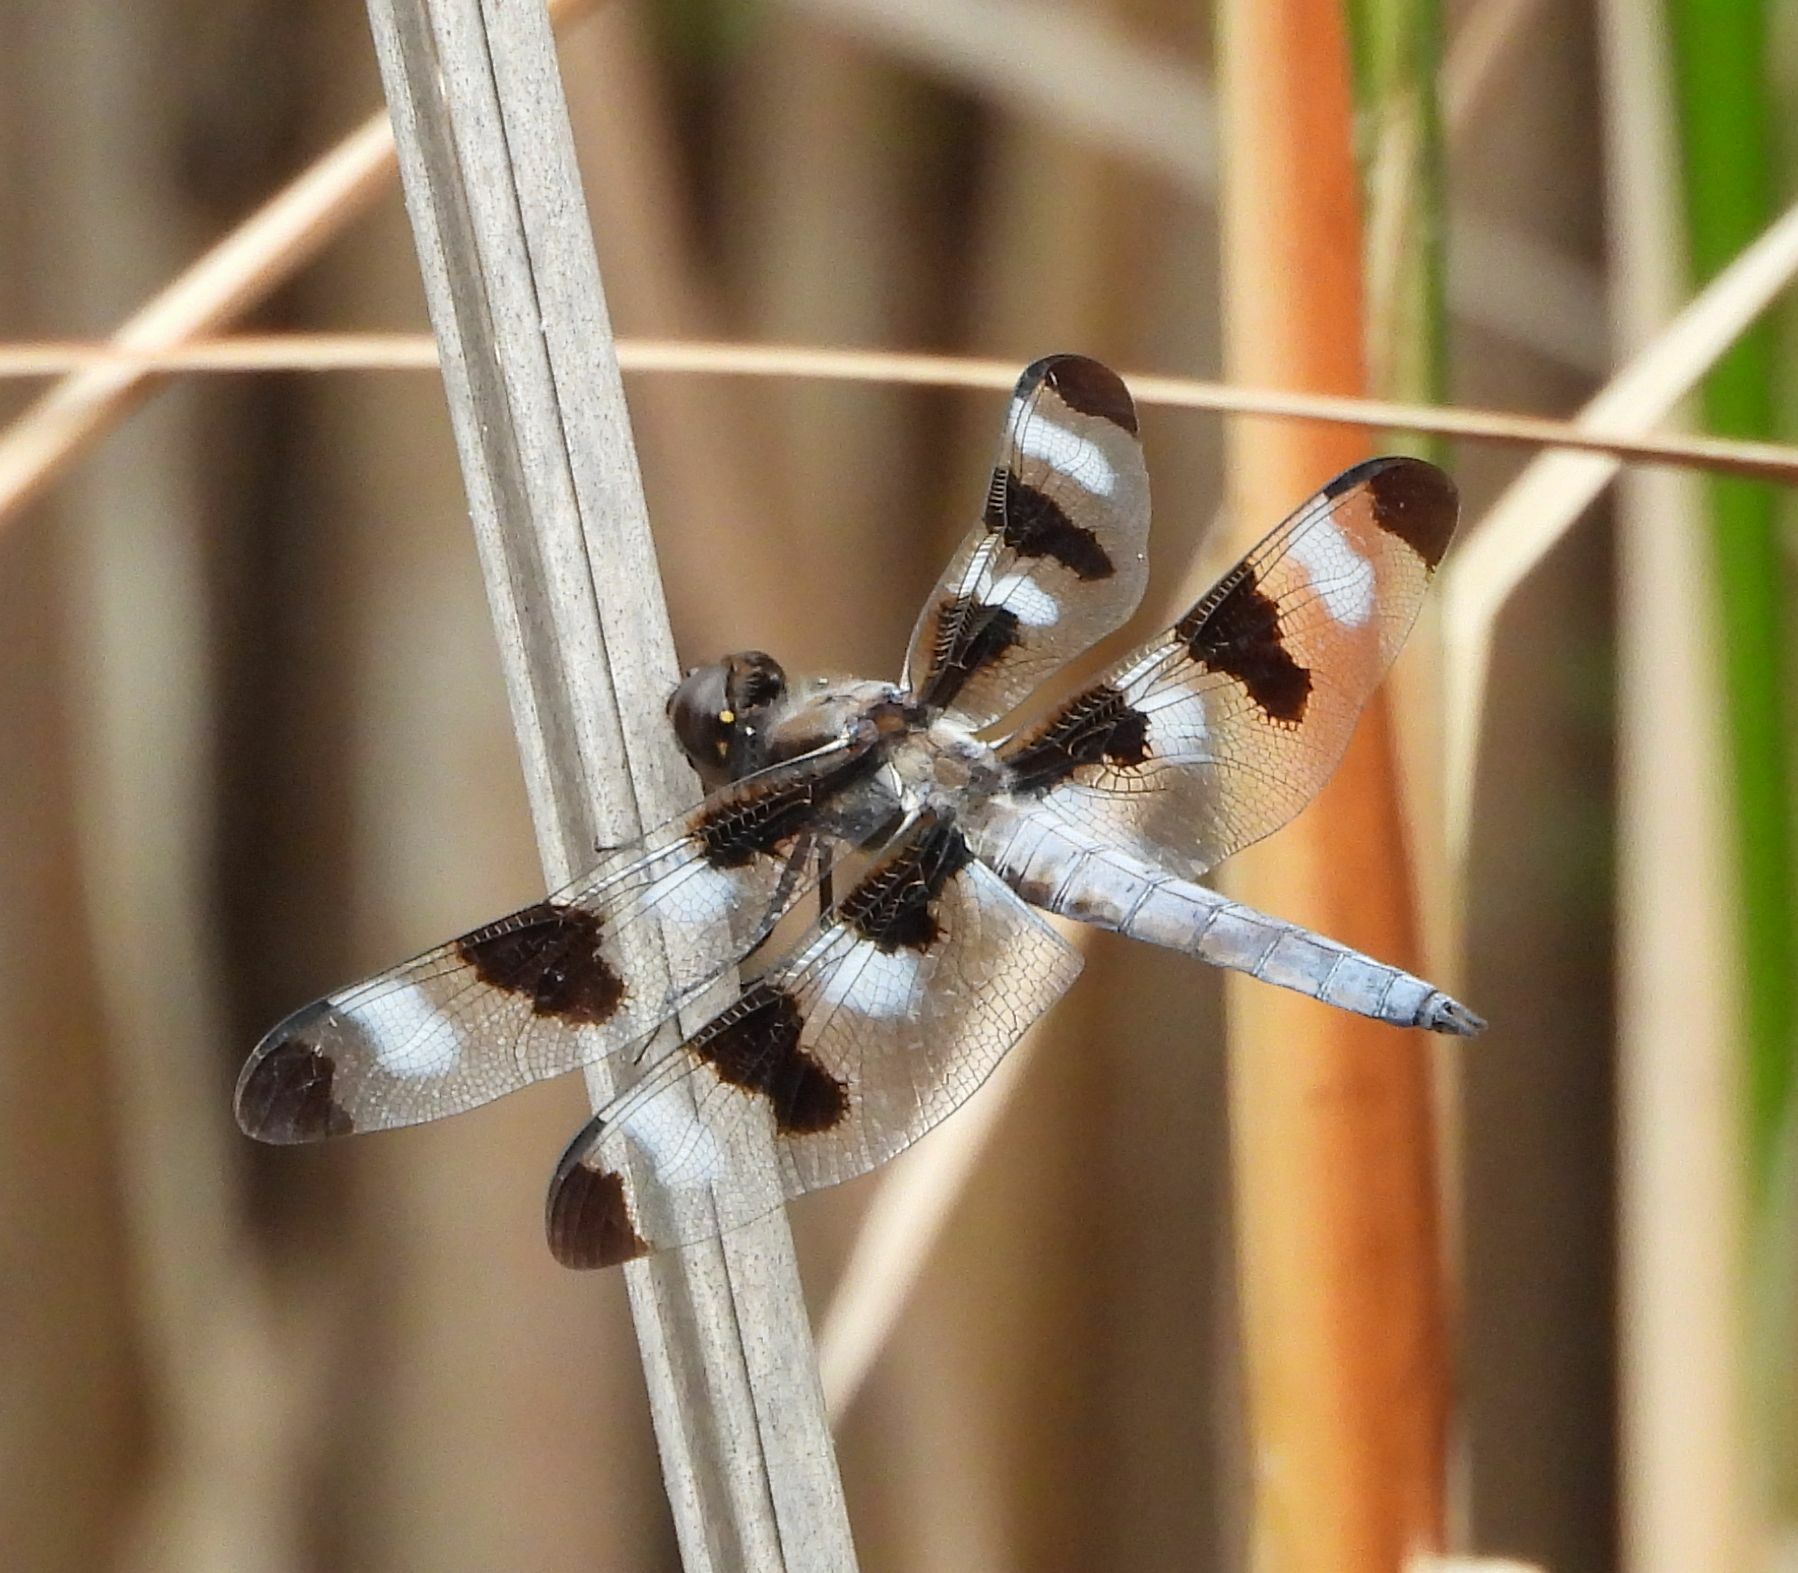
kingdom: Animalia
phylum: Arthropoda
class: Insecta
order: Odonata
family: Libellulidae
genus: Libellula
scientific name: Libellula pulchella
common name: Twelve-spotted skimmer
